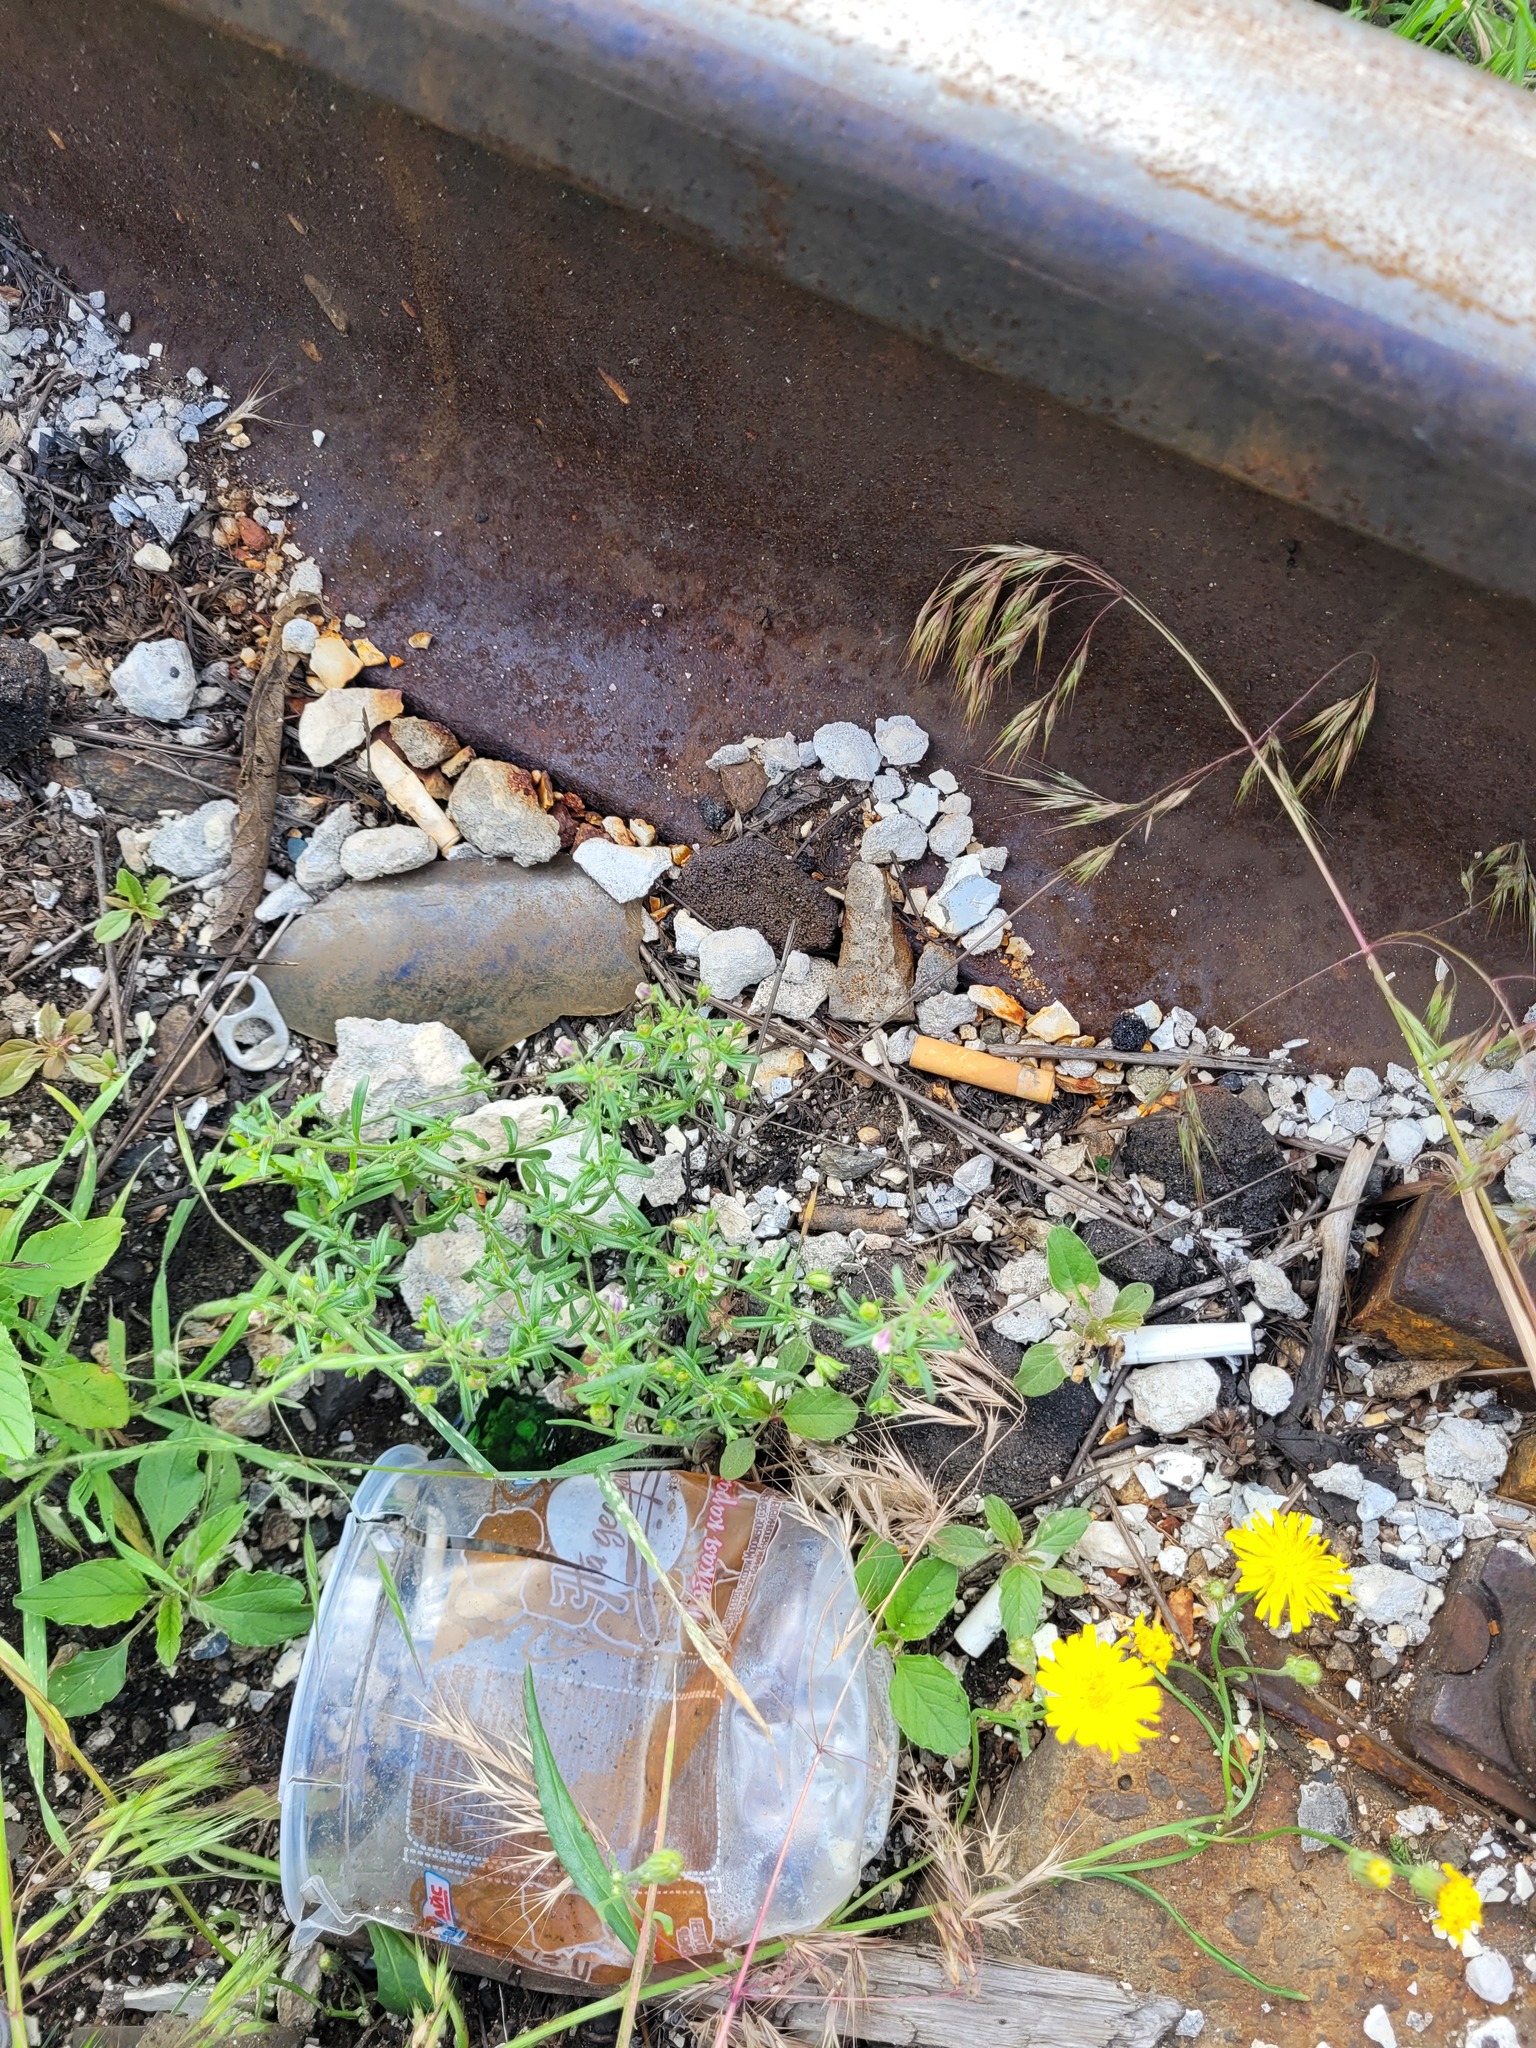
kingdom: Plantae
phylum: Tracheophyta
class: Magnoliopsida
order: Lamiales
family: Plantaginaceae
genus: Chaenorhinum
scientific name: Chaenorhinum minus
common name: Dwarf snapdragon
